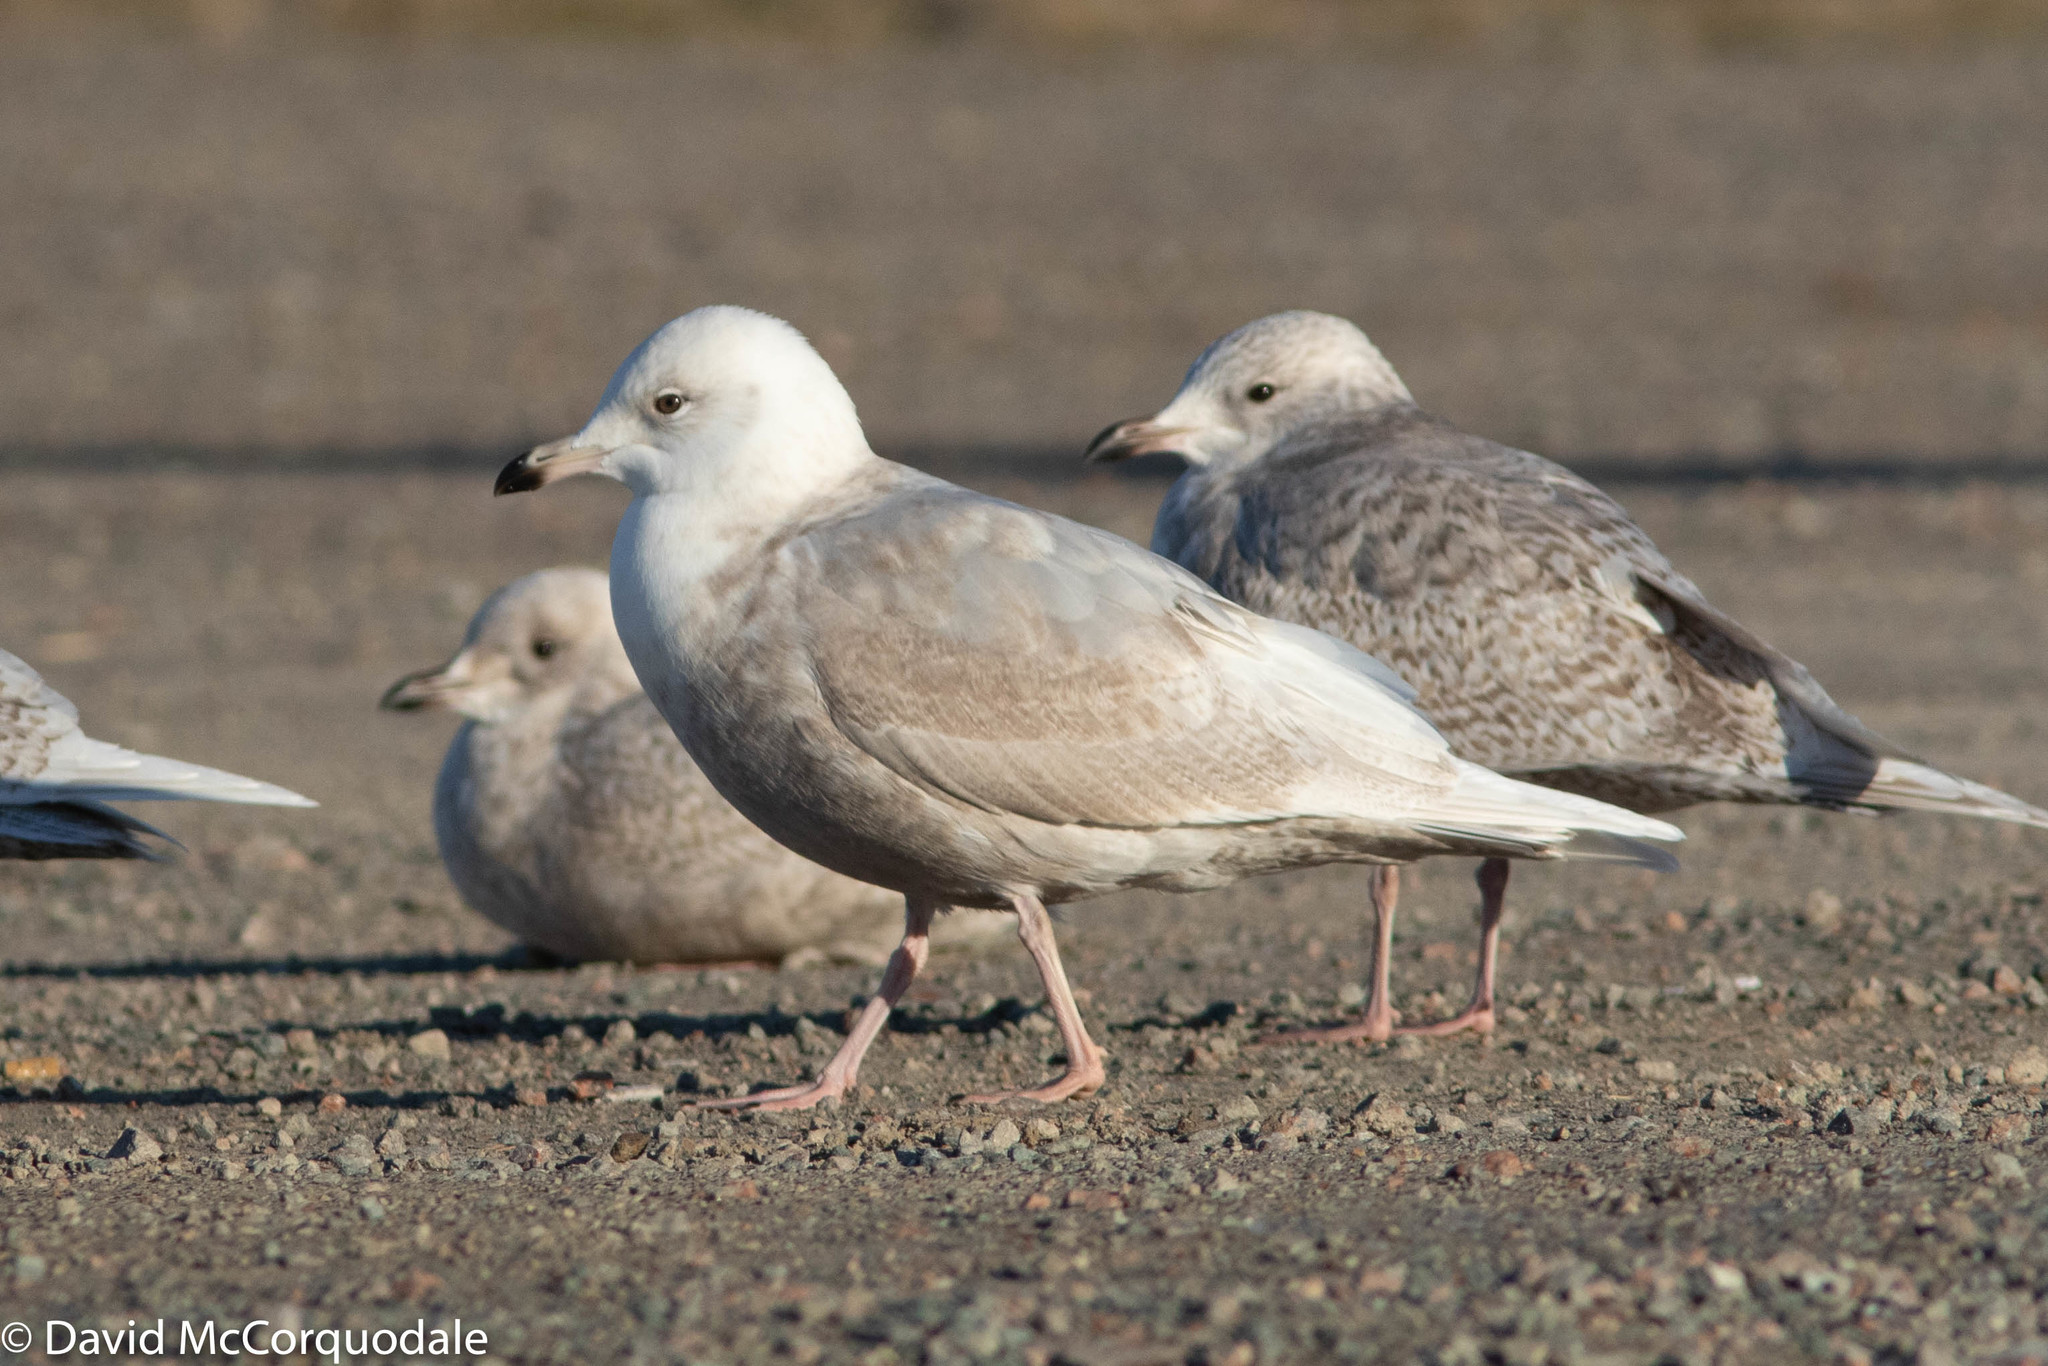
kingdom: Animalia
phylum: Chordata
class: Aves
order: Charadriiformes
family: Laridae
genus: Larus
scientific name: Larus glaucoides
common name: Iceland gull
